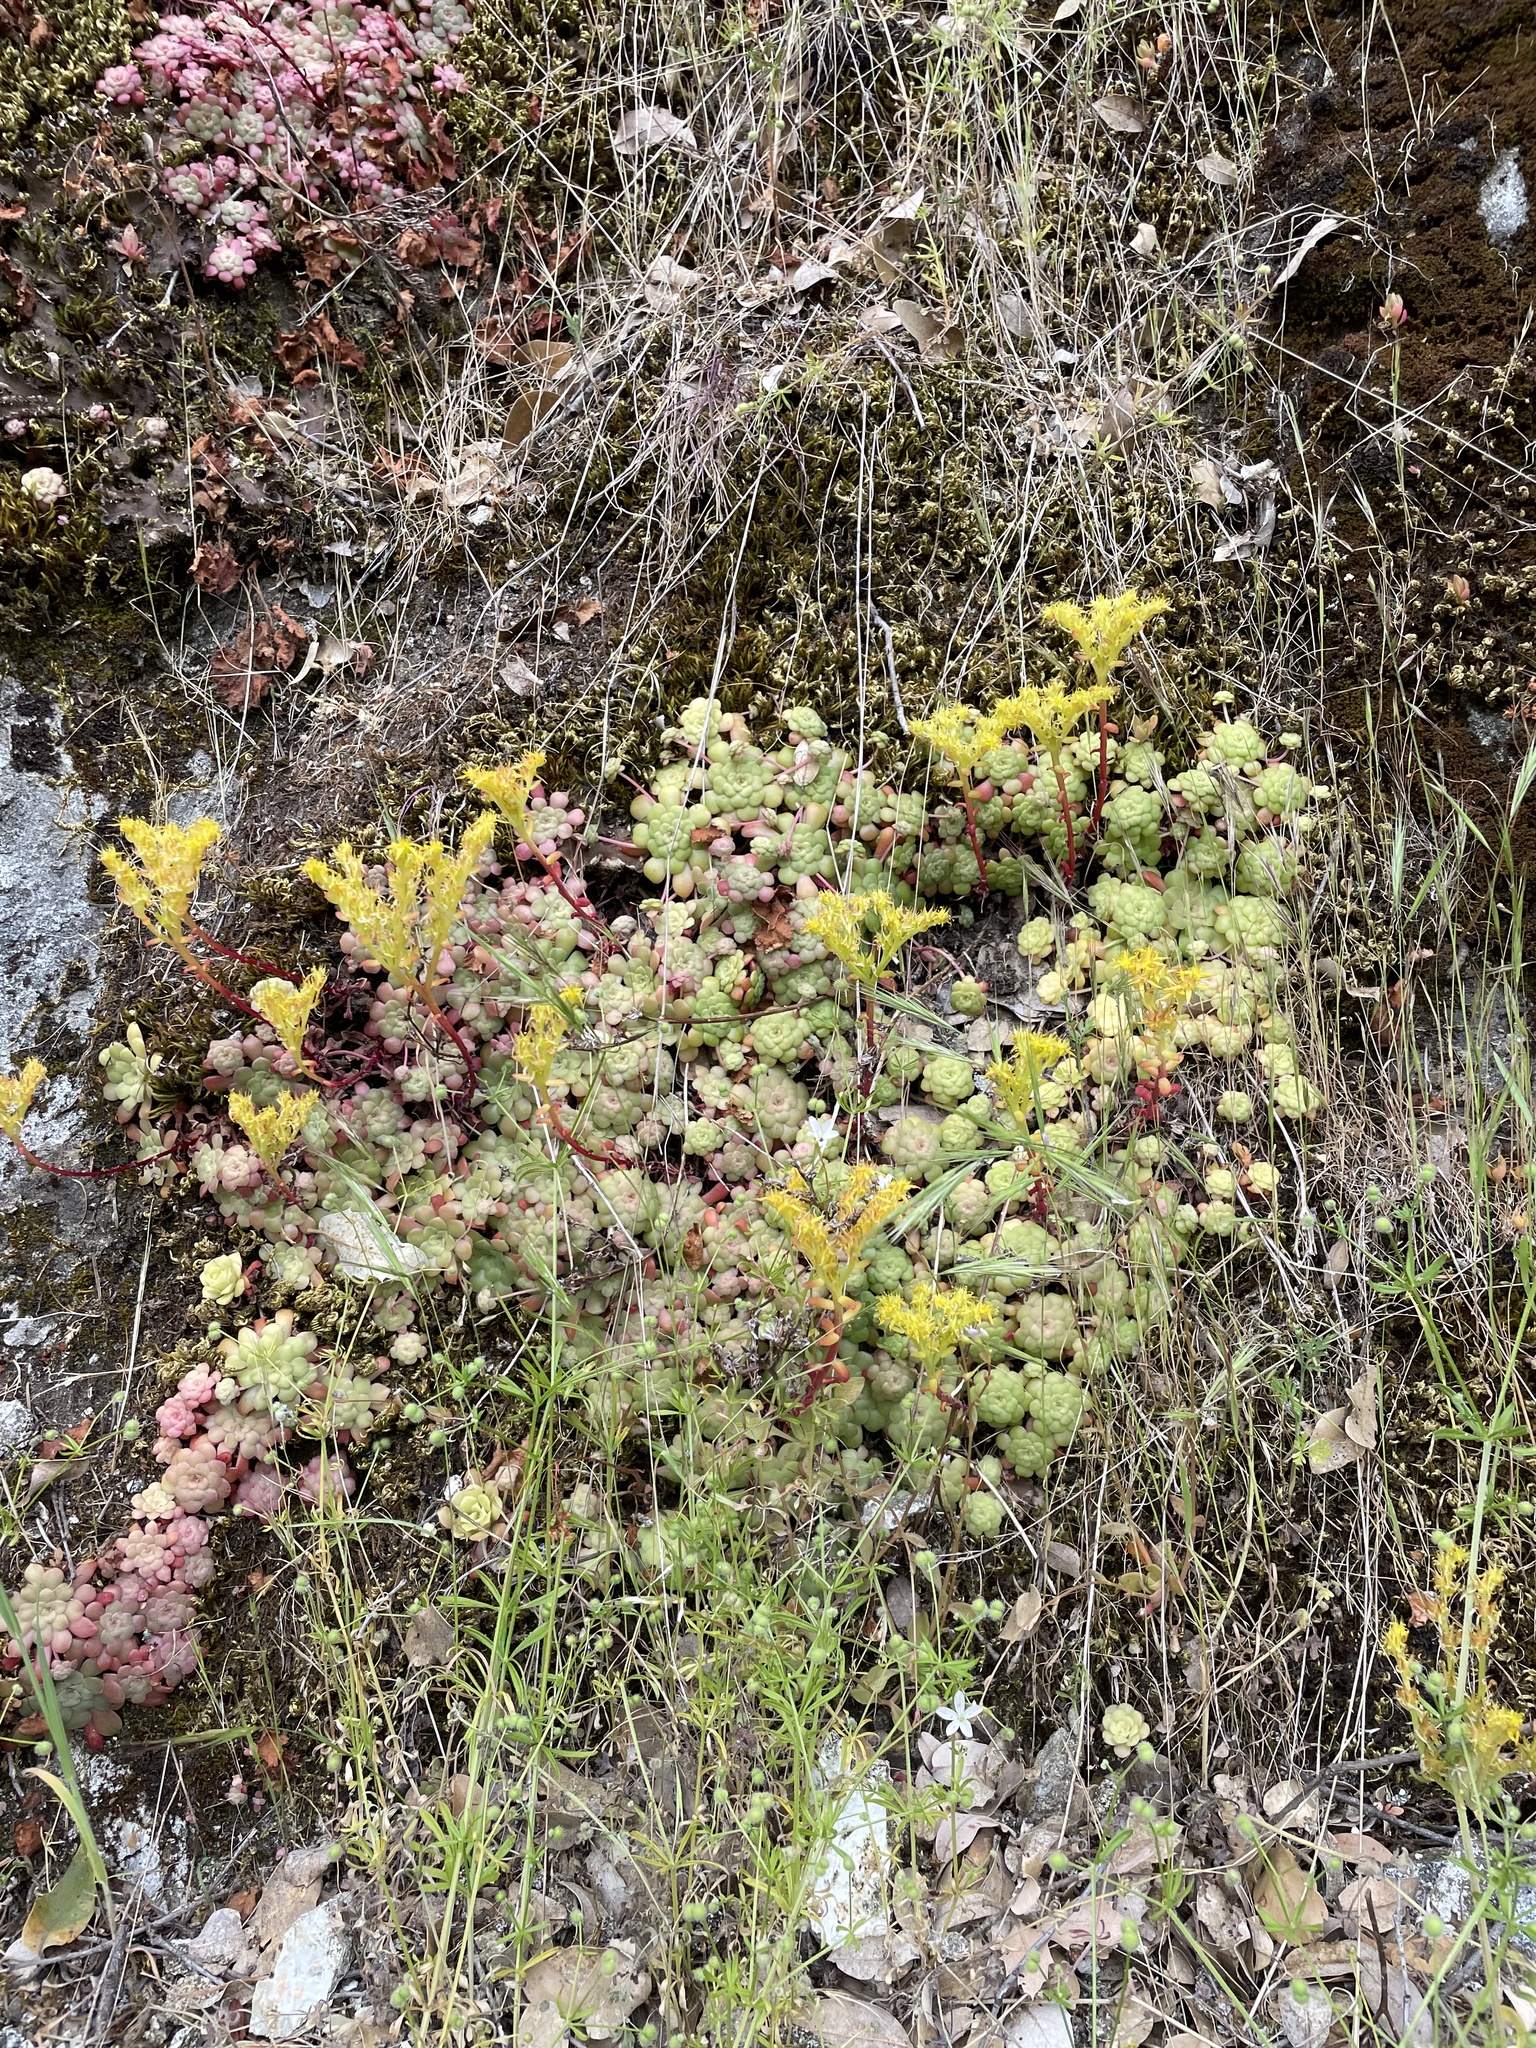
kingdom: Plantae
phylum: Tracheophyta
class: Magnoliopsida
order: Saxifragales
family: Crassulaceae
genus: Sedum
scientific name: Sedum spathulifolium
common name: Colorado stonecrop
